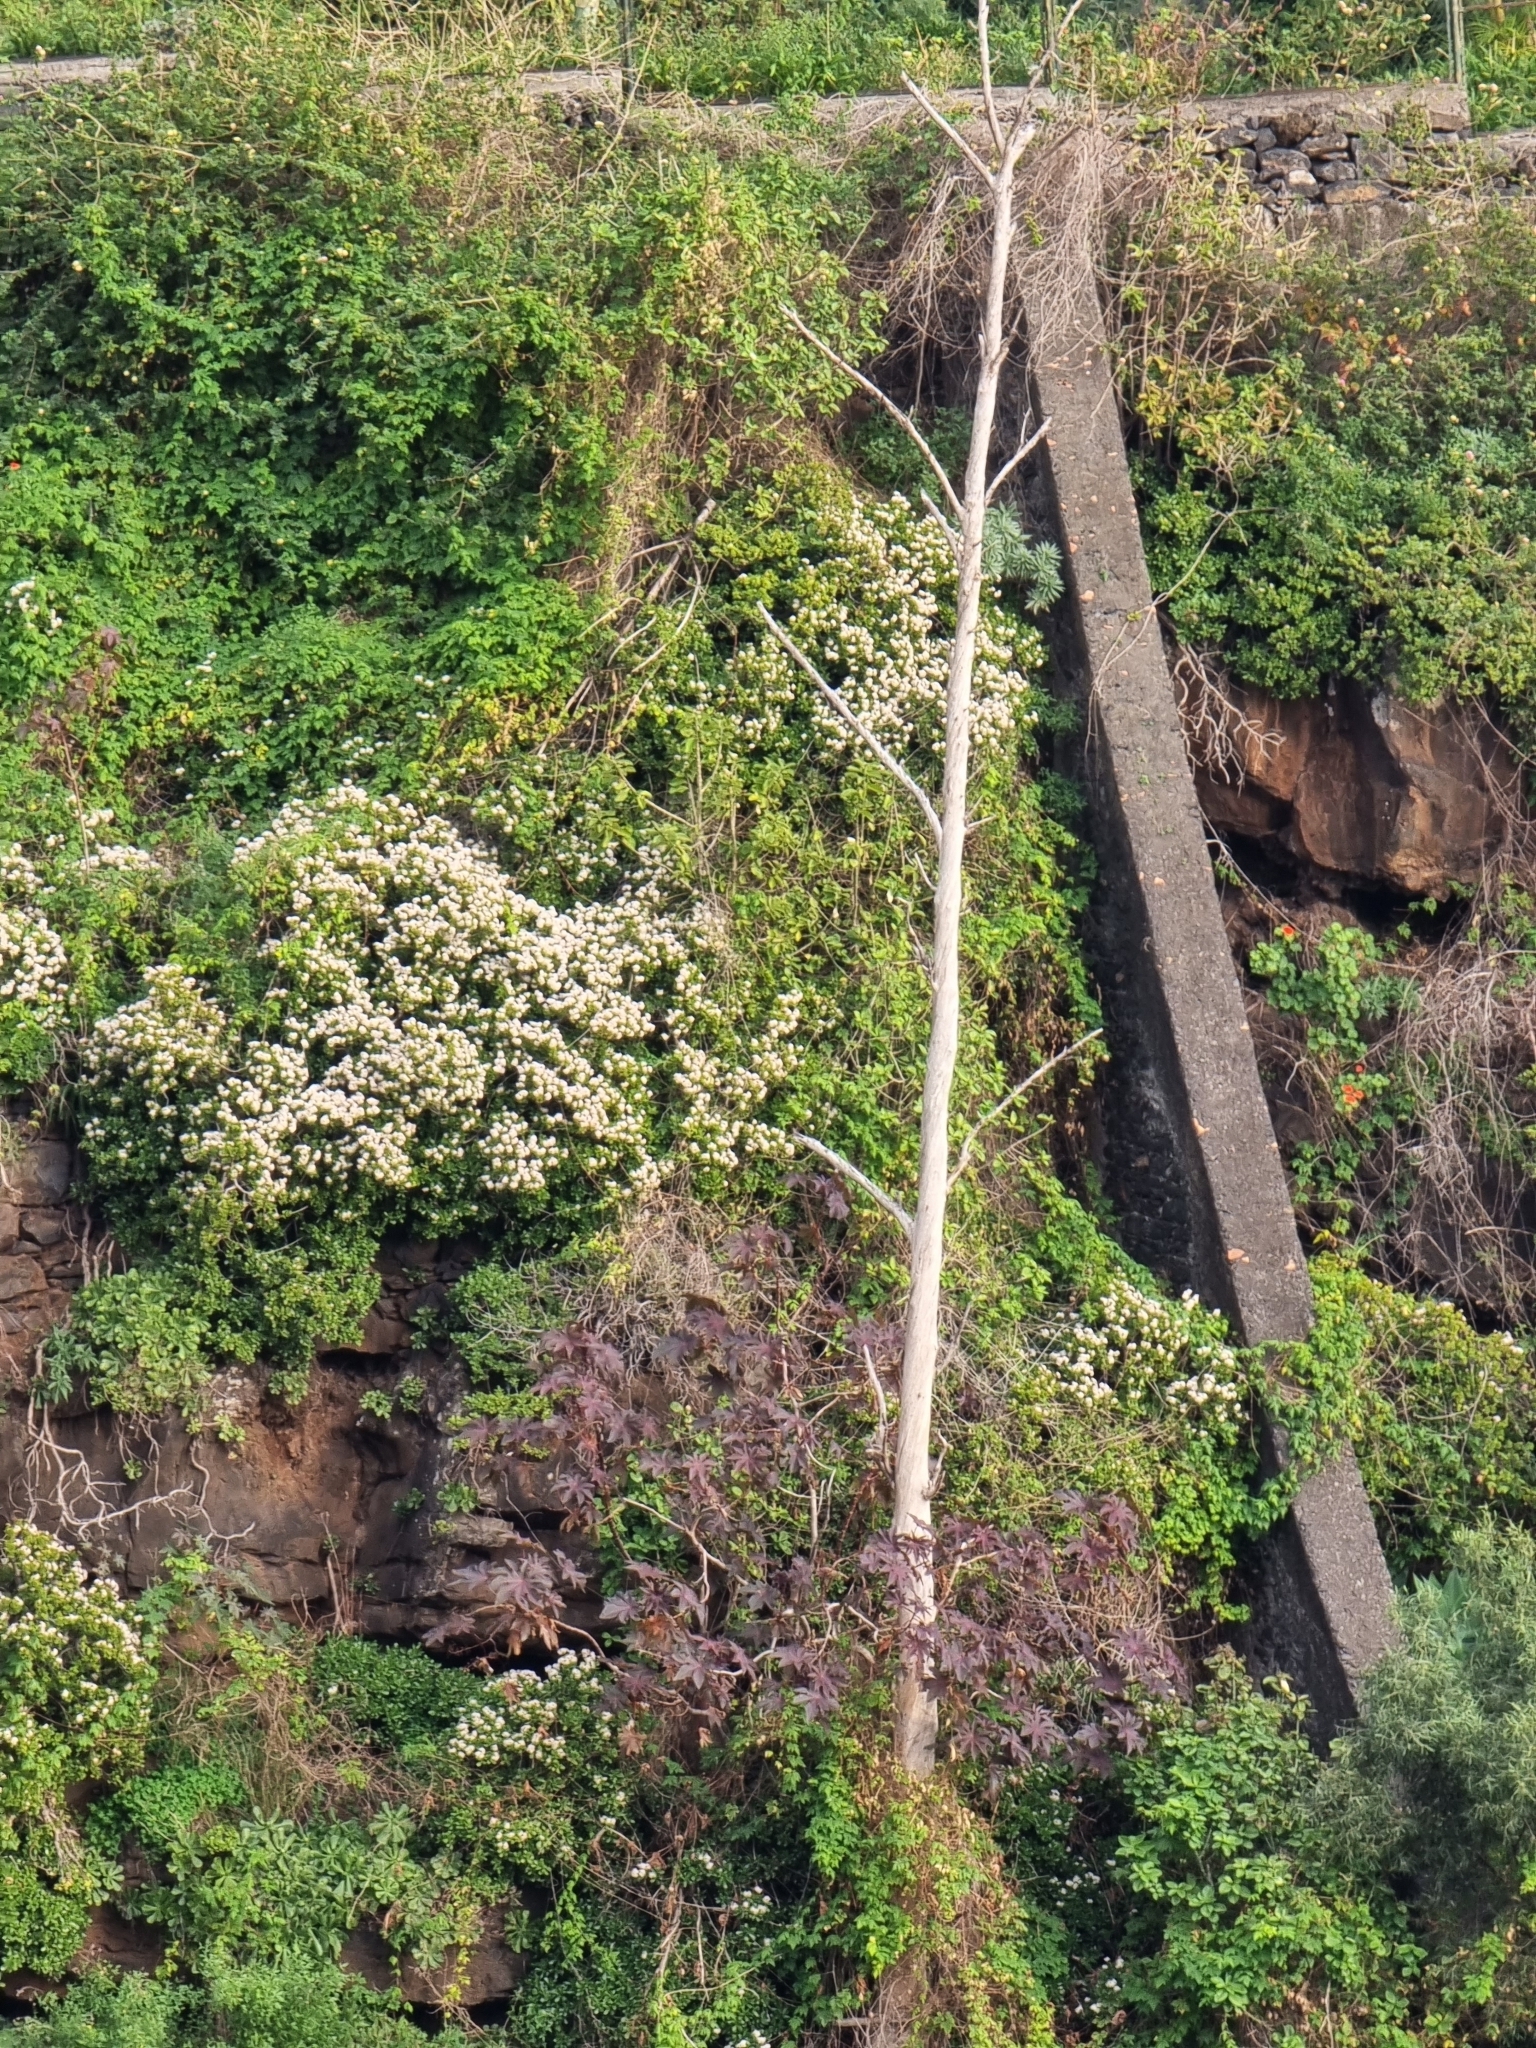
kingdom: Plantae
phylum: Tracheophyta
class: Magnoliopsida
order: Saxifragales
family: Crassulaceae
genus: Crassula
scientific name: Crassula ovata
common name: Jade plant
